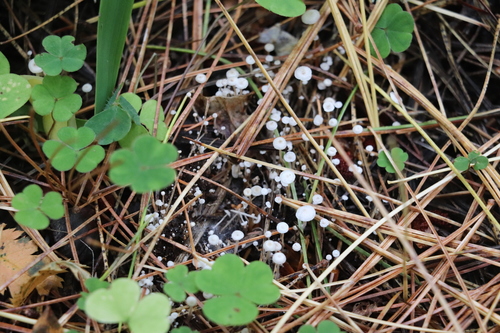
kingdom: Fungi
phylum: Basidiomycota
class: Agaricomycetes
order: Agaricales
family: Tricholomataceae
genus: Collybia
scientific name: Collybia tuberosa
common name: Lentil shanklet
